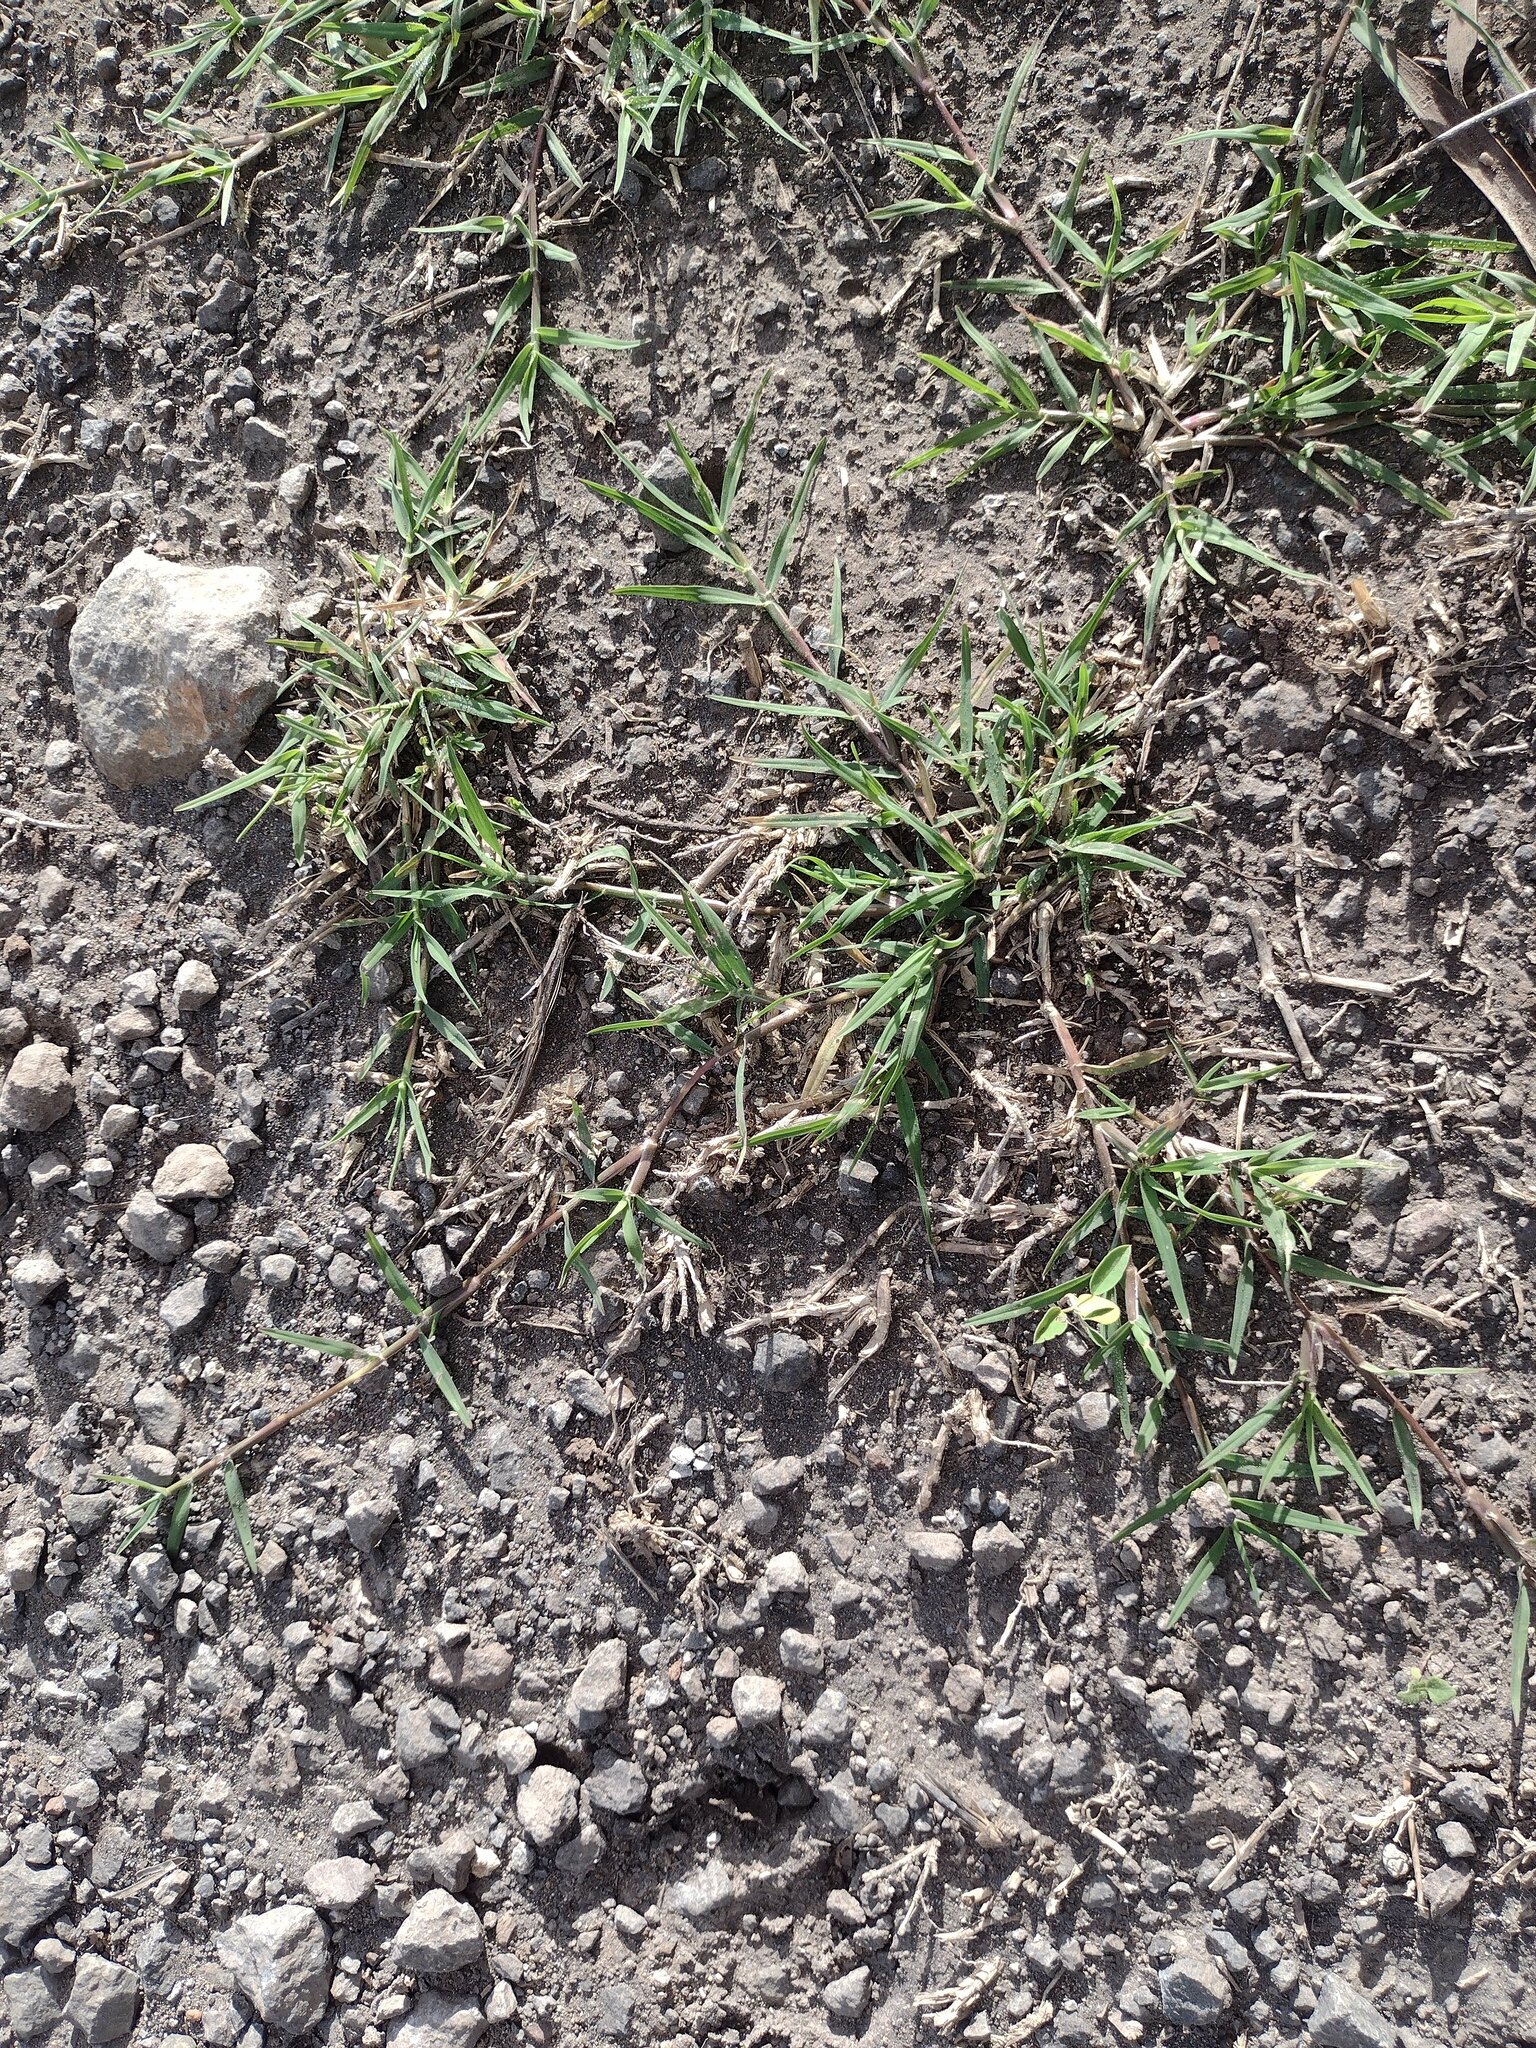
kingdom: Plantae
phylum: Tracheophyta
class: Liliopsida
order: Poales
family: Poaceae
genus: Cynodon
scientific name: Cynodon dactylon
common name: Bermuda grass
